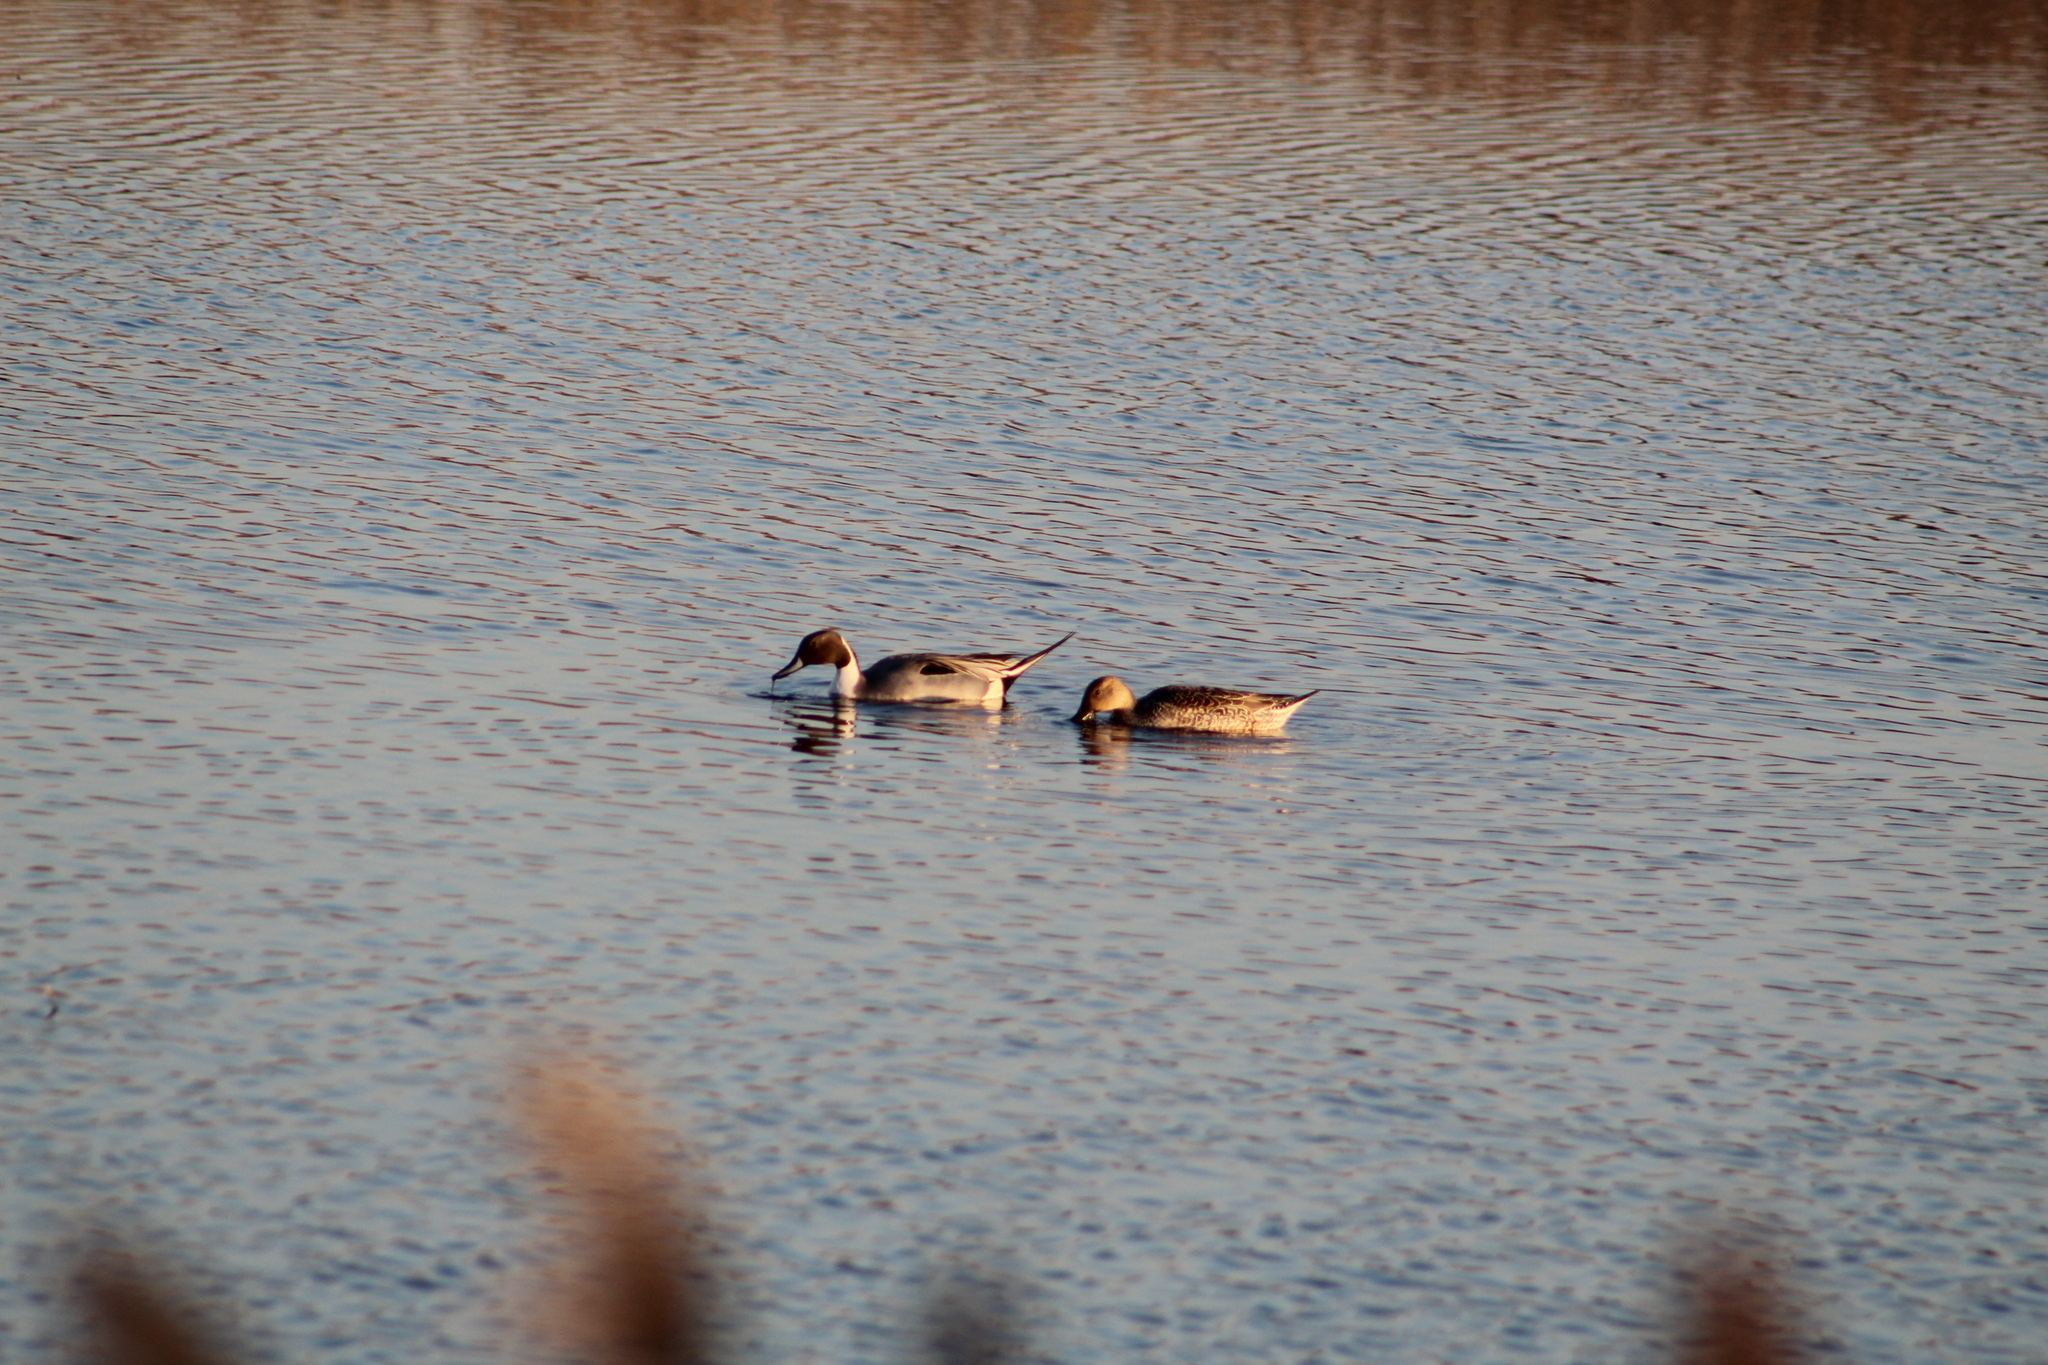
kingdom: Animalia
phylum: Chordata
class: Aves
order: Anseriformes
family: Anatidae
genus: Anas
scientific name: Anas acuta
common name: Northern pintail
